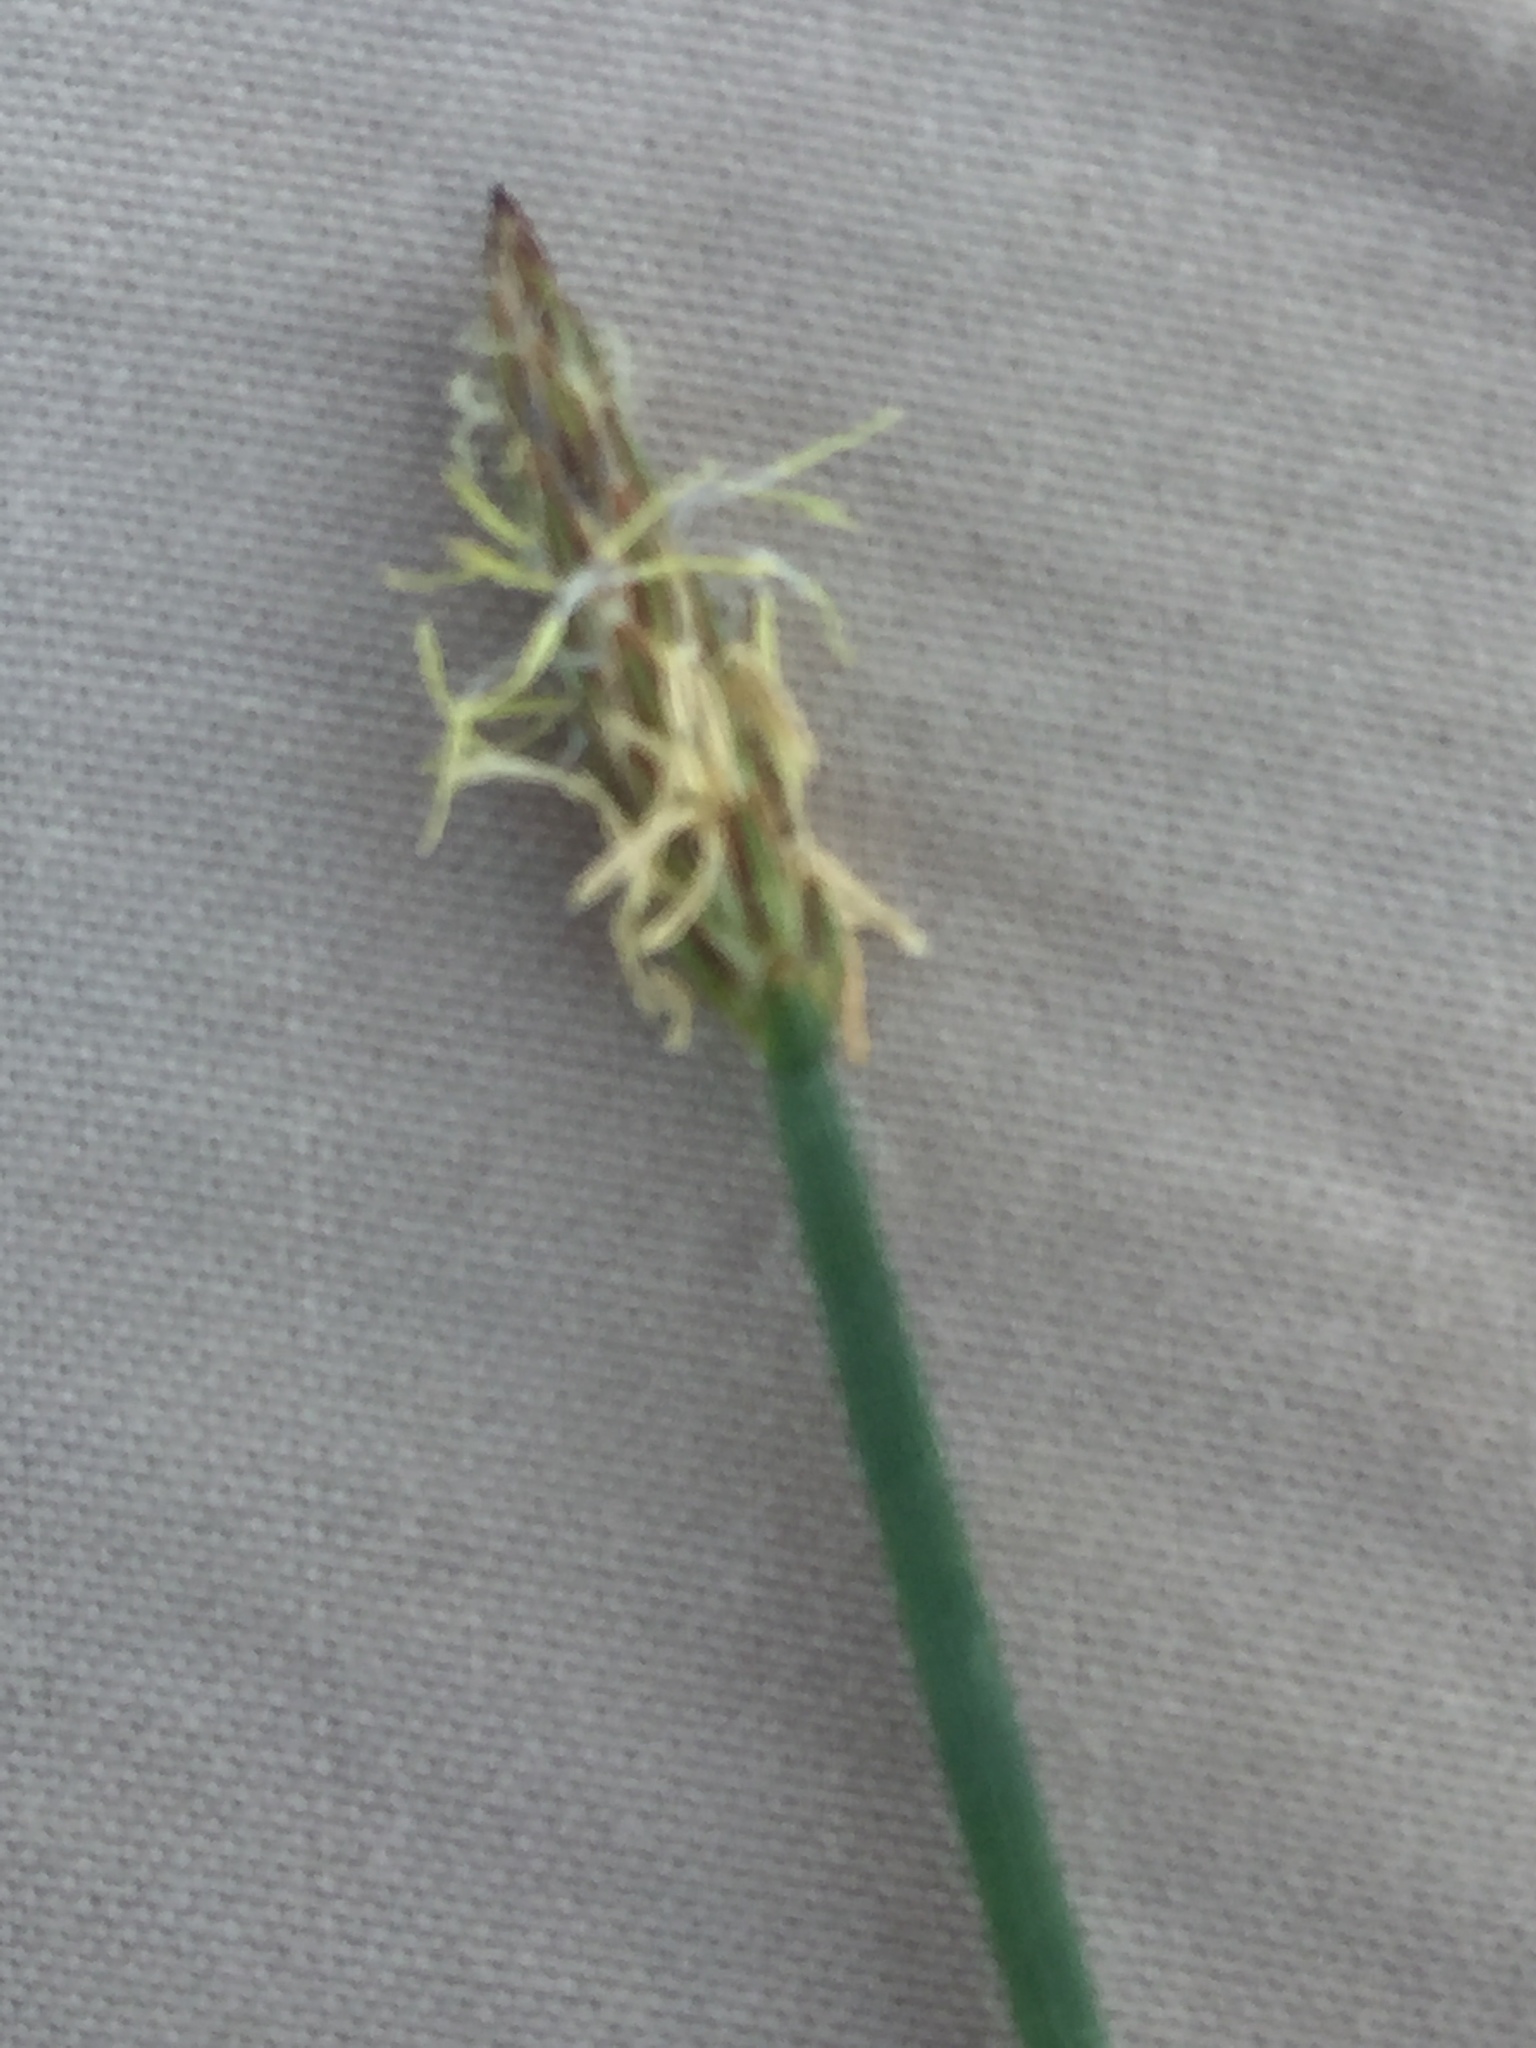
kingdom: Plantae
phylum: Tracheophyta
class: Liliopsida
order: Poales
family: Cyperaceae
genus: Eleocharis
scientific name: Eleocharis palustris
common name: Common spike-rush
